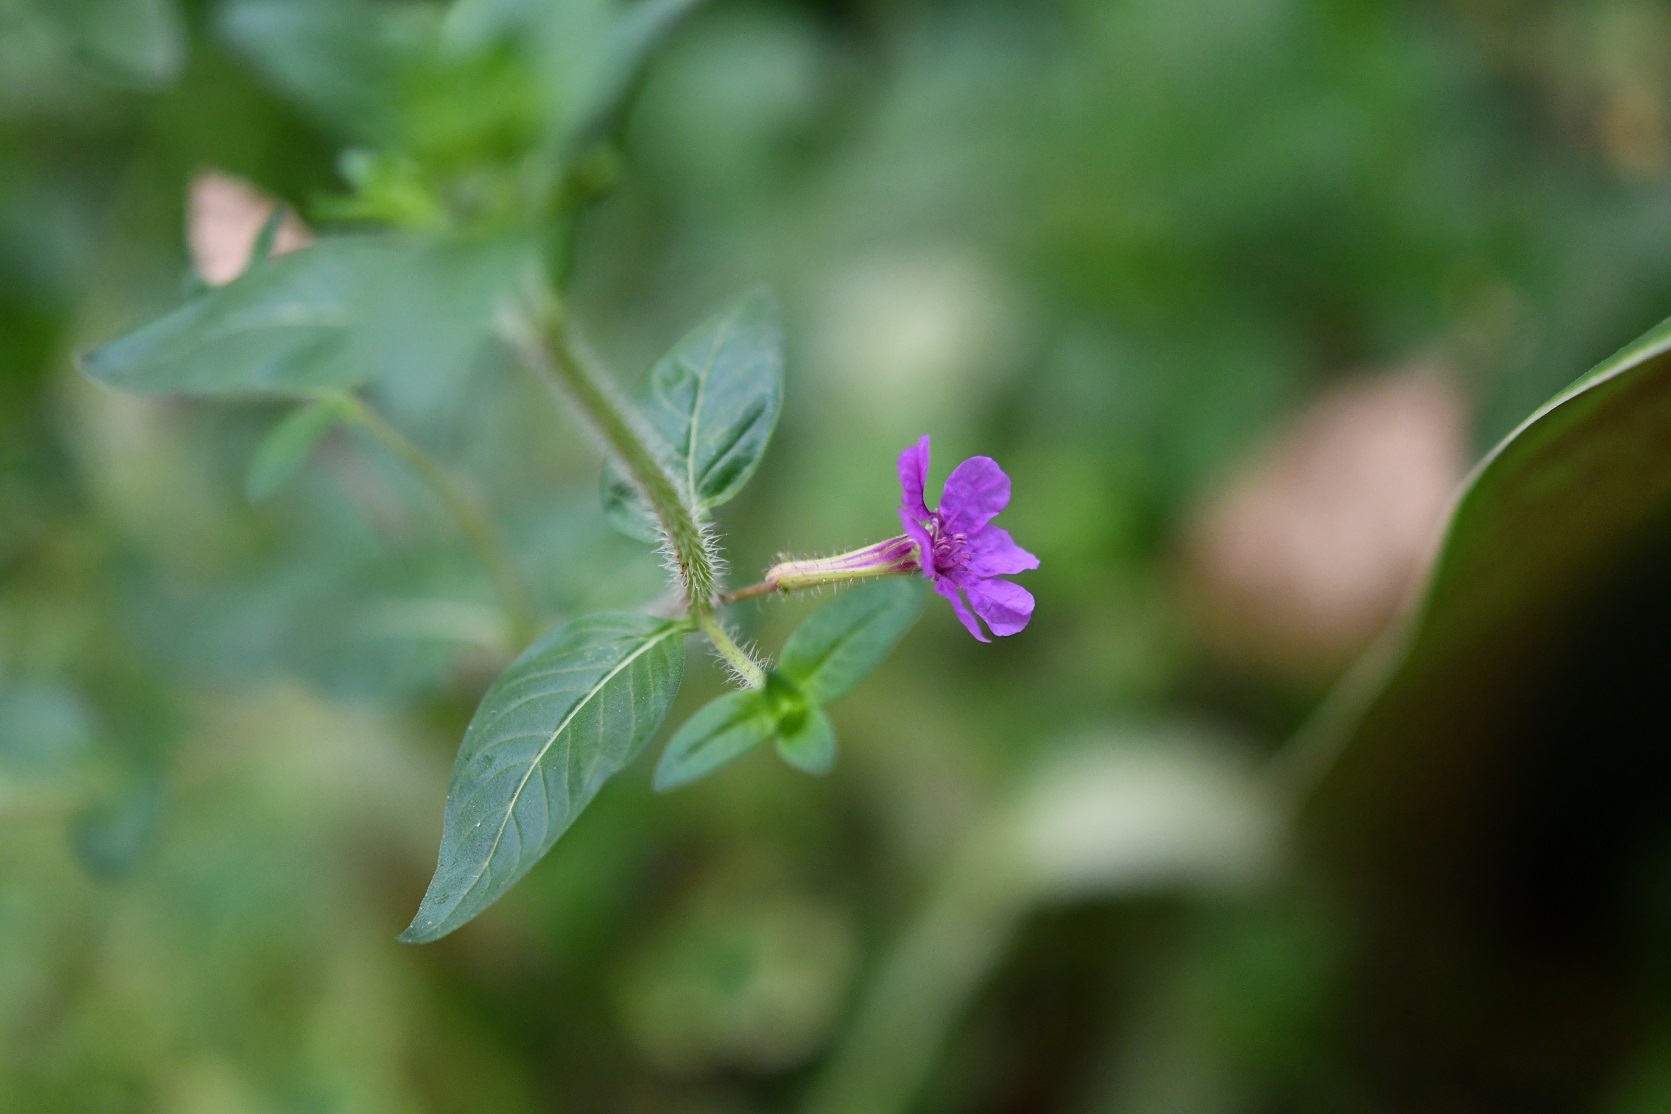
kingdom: Plantae
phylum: Tracheophyta
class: Magnoliopsida
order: Myrtales
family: Lythraceae
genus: Cuphea
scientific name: Cuphea aequipetala
